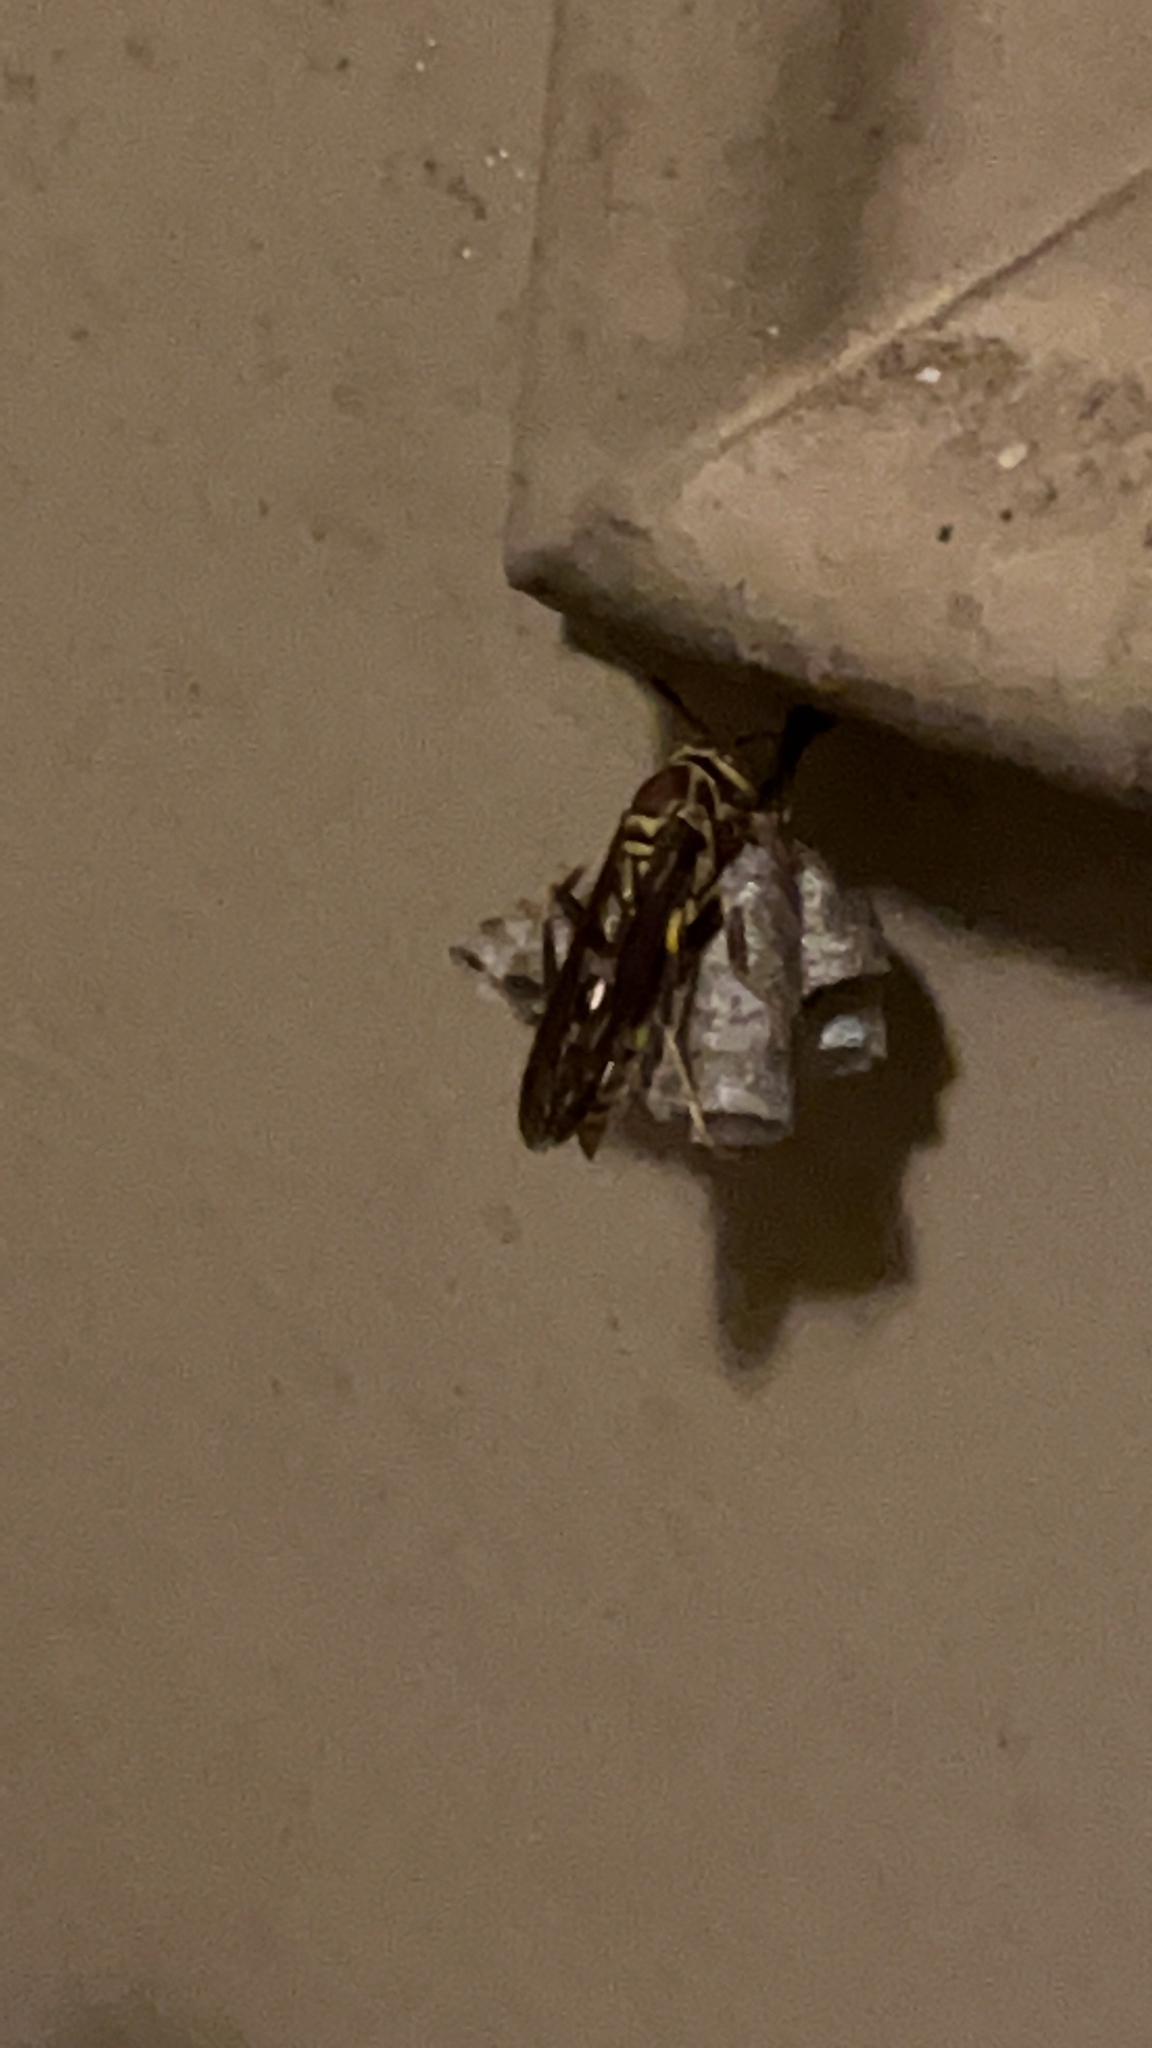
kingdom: Animalia
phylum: Arthropoda
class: Insecta
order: Hymenoptera
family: Eumenidae
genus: Polistes
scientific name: Polistes exclamans
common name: Paper wasp
